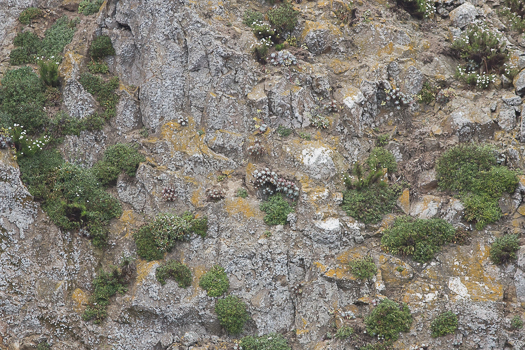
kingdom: Plantae
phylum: Tracheophyta
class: Magnoliopsida
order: Saxifragales
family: Crassulaceae
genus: Dudleya
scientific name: Dudleya caespitosa
